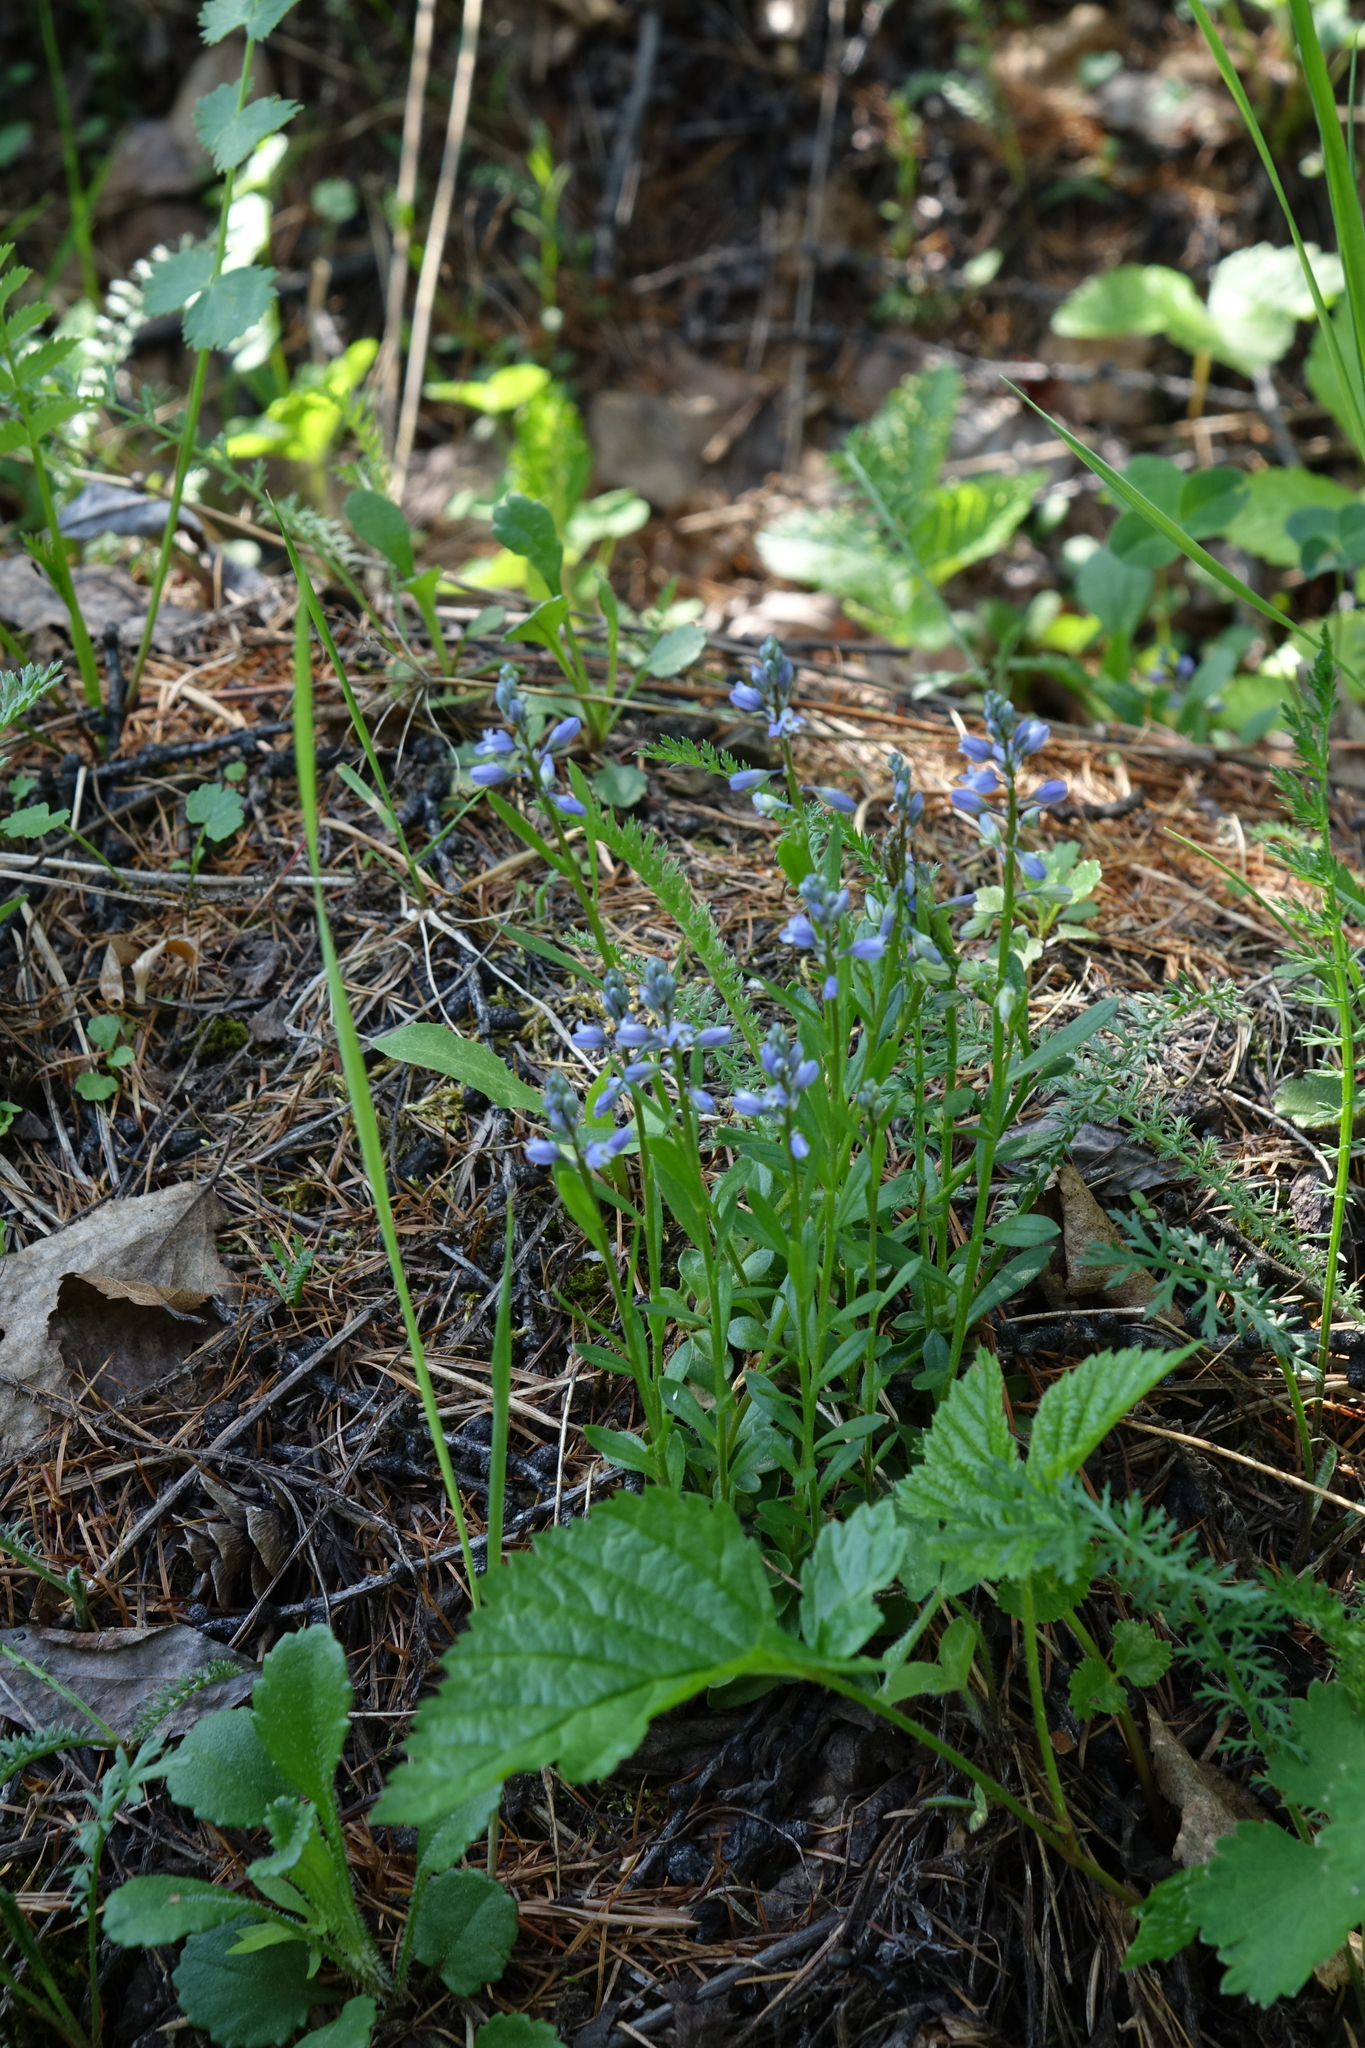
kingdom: Plantae
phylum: Tracheophyta
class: Magnoliopsida
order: Fabales
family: Polygalaceae
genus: Polygala
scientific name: Polygala amarella
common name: Dwarf milkwort
